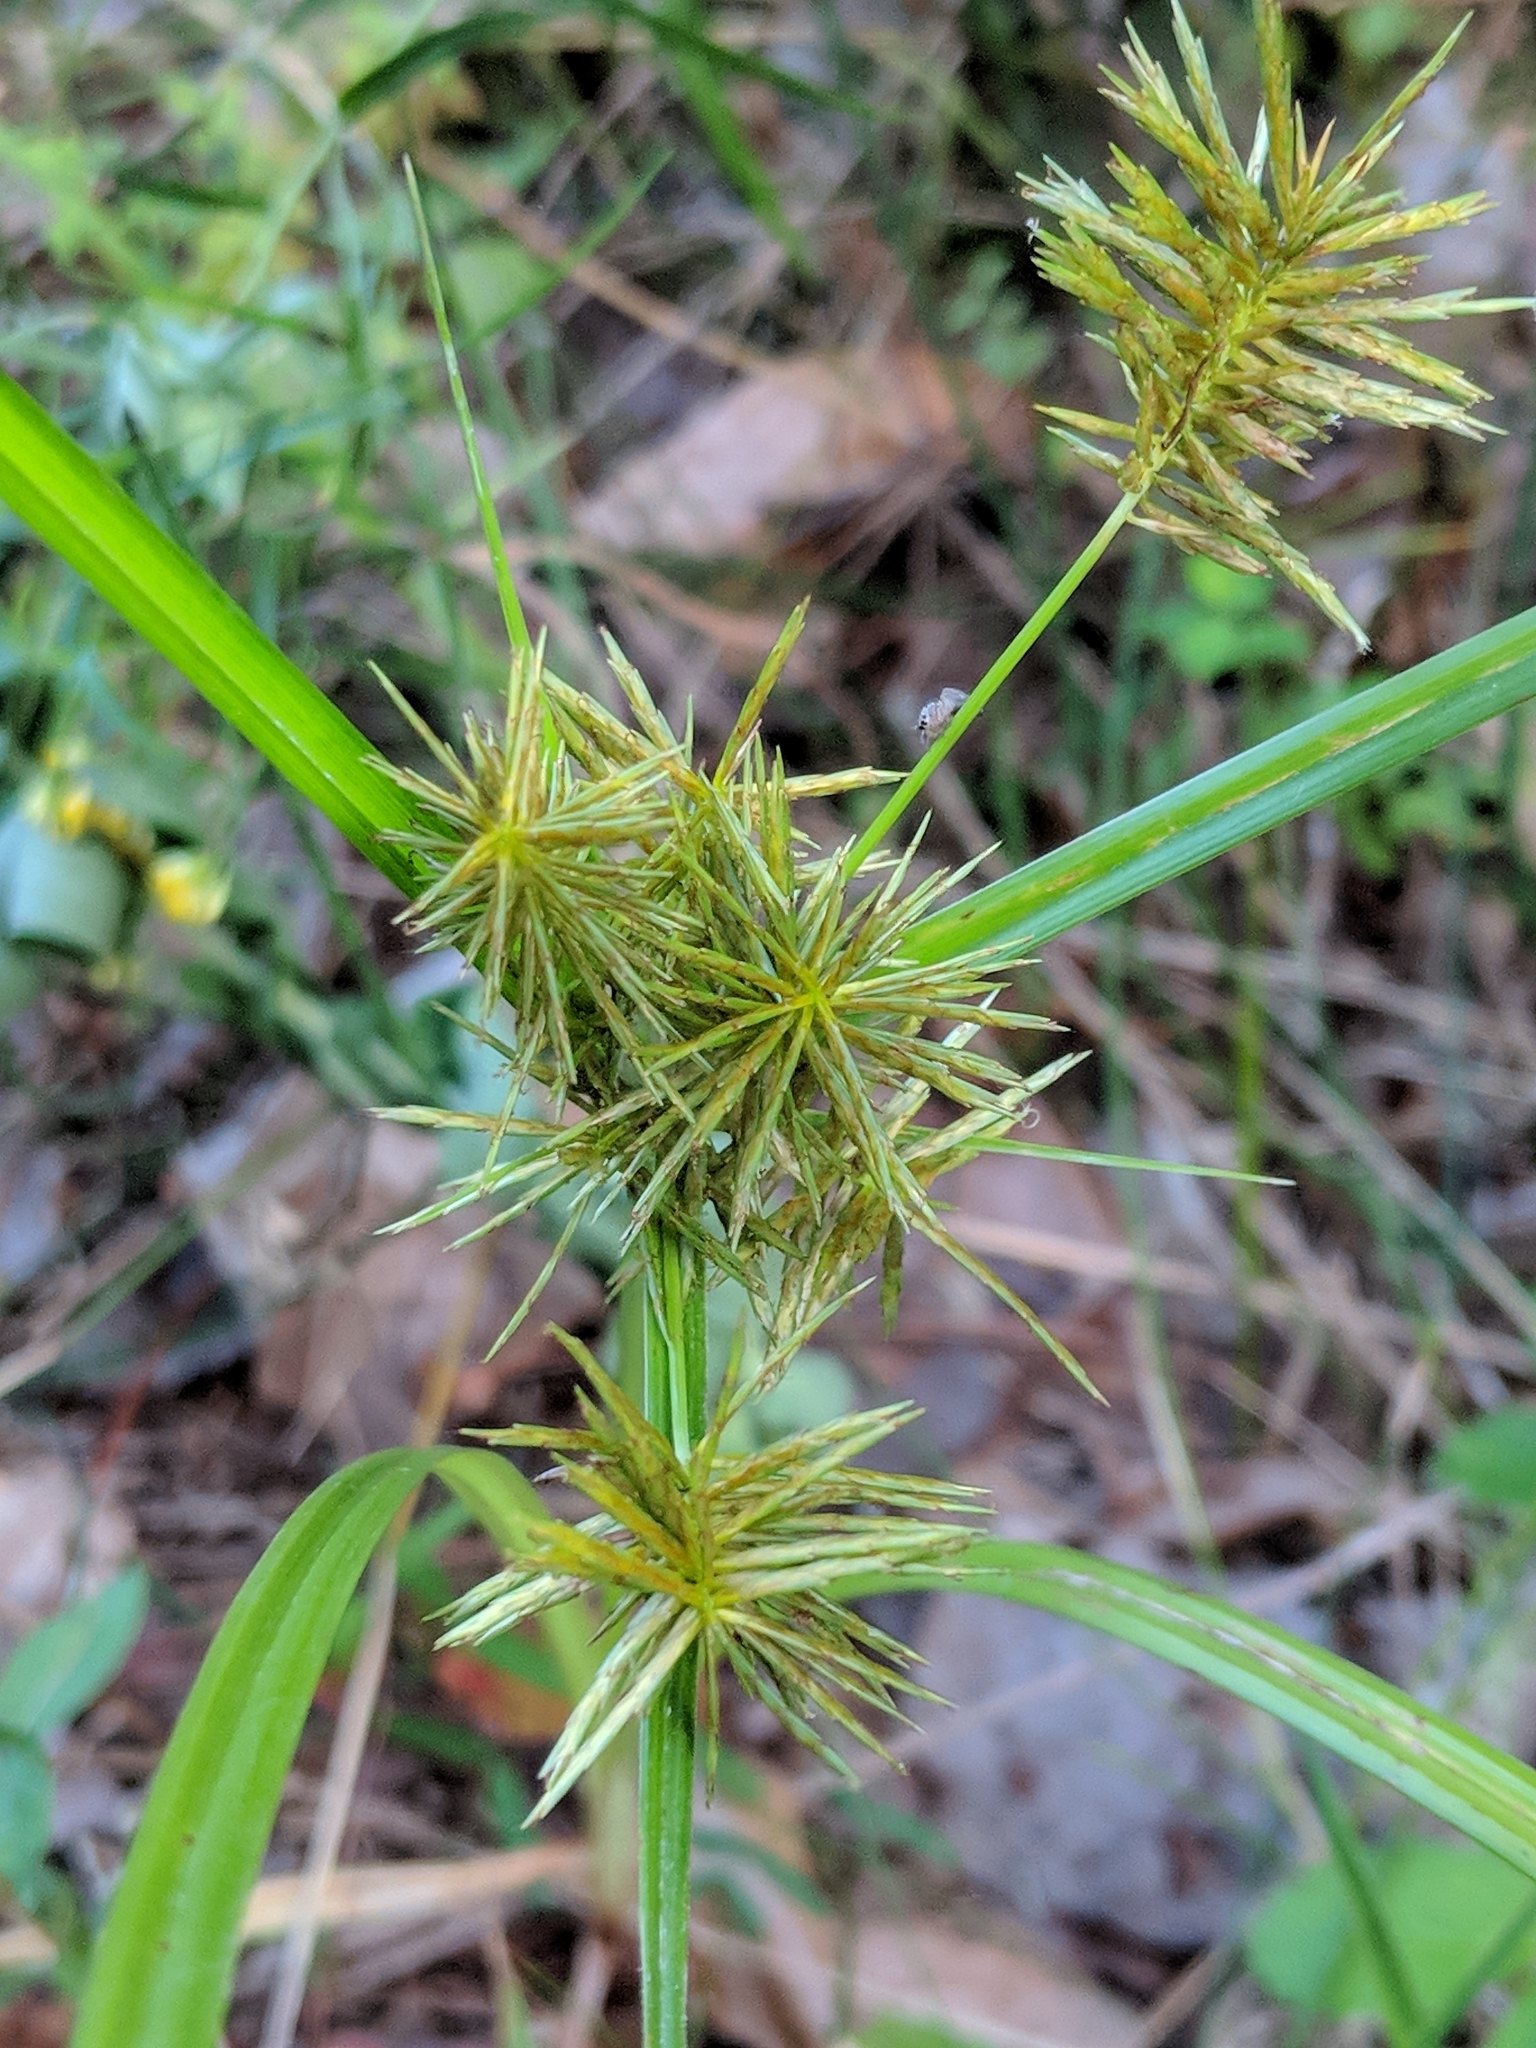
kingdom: Plantae
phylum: Tracheophyta
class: Liliopsida
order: Poales
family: Cyperaceae
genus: Cyperus
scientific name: Cyperus strigosus
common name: False nutsedge
